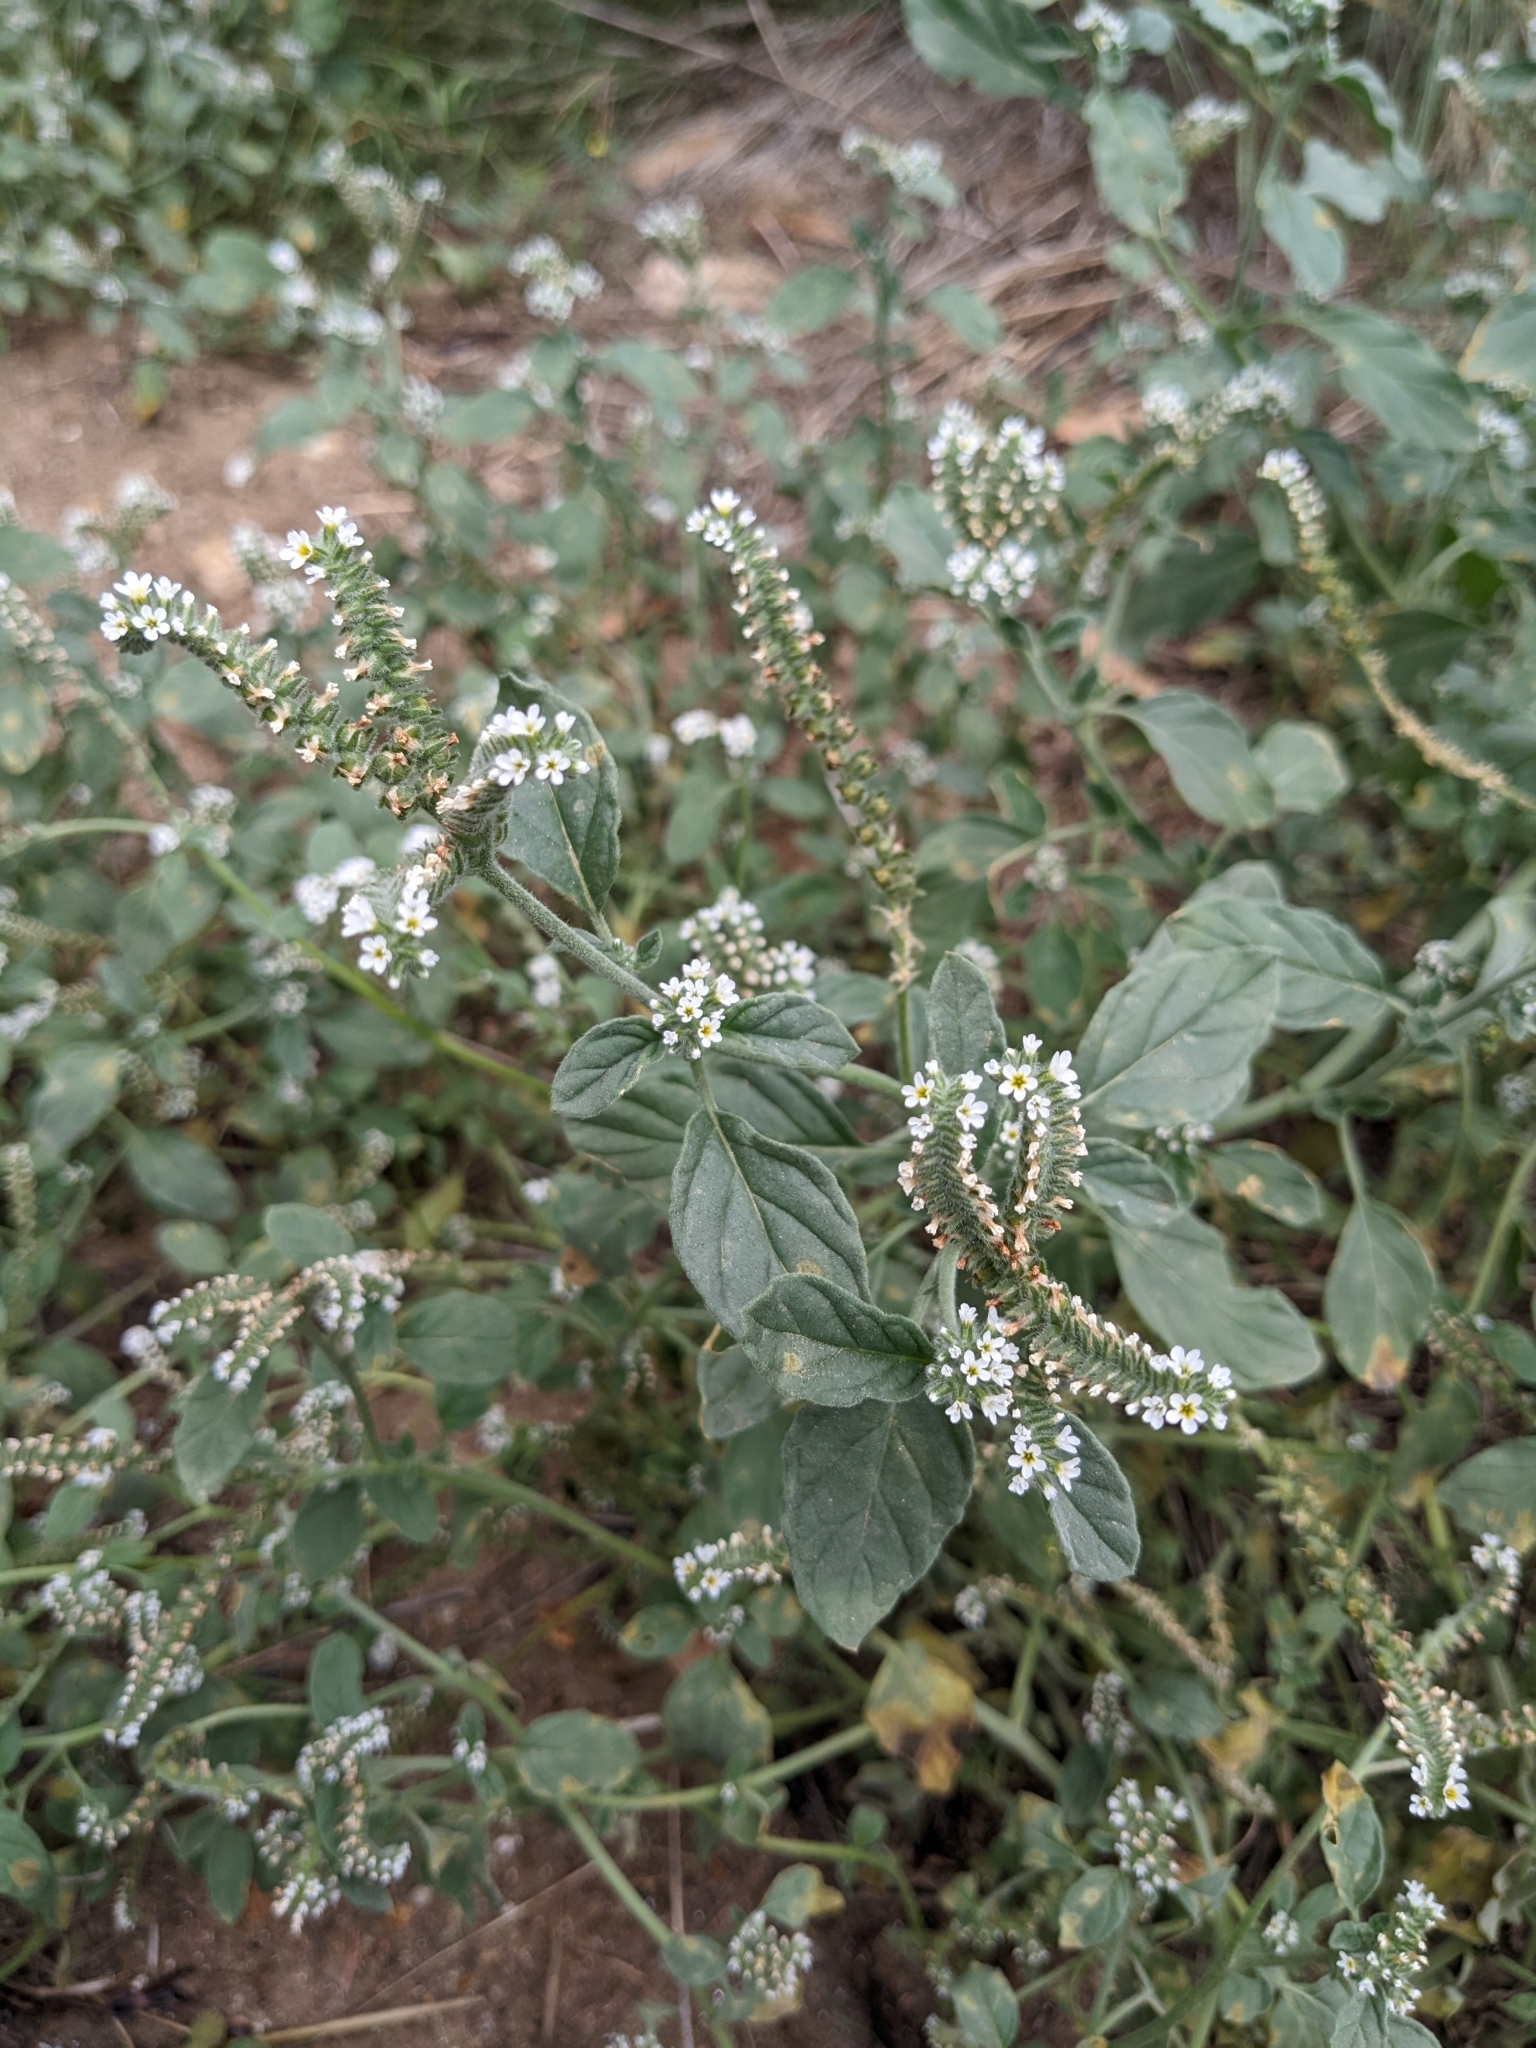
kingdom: Plantae
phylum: Tracheophyta
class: Magnoliopsida
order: Boraginales
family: Heliotropiaceae
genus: Heliotropium
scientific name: Heliotropium europaeum
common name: European heliotrope
